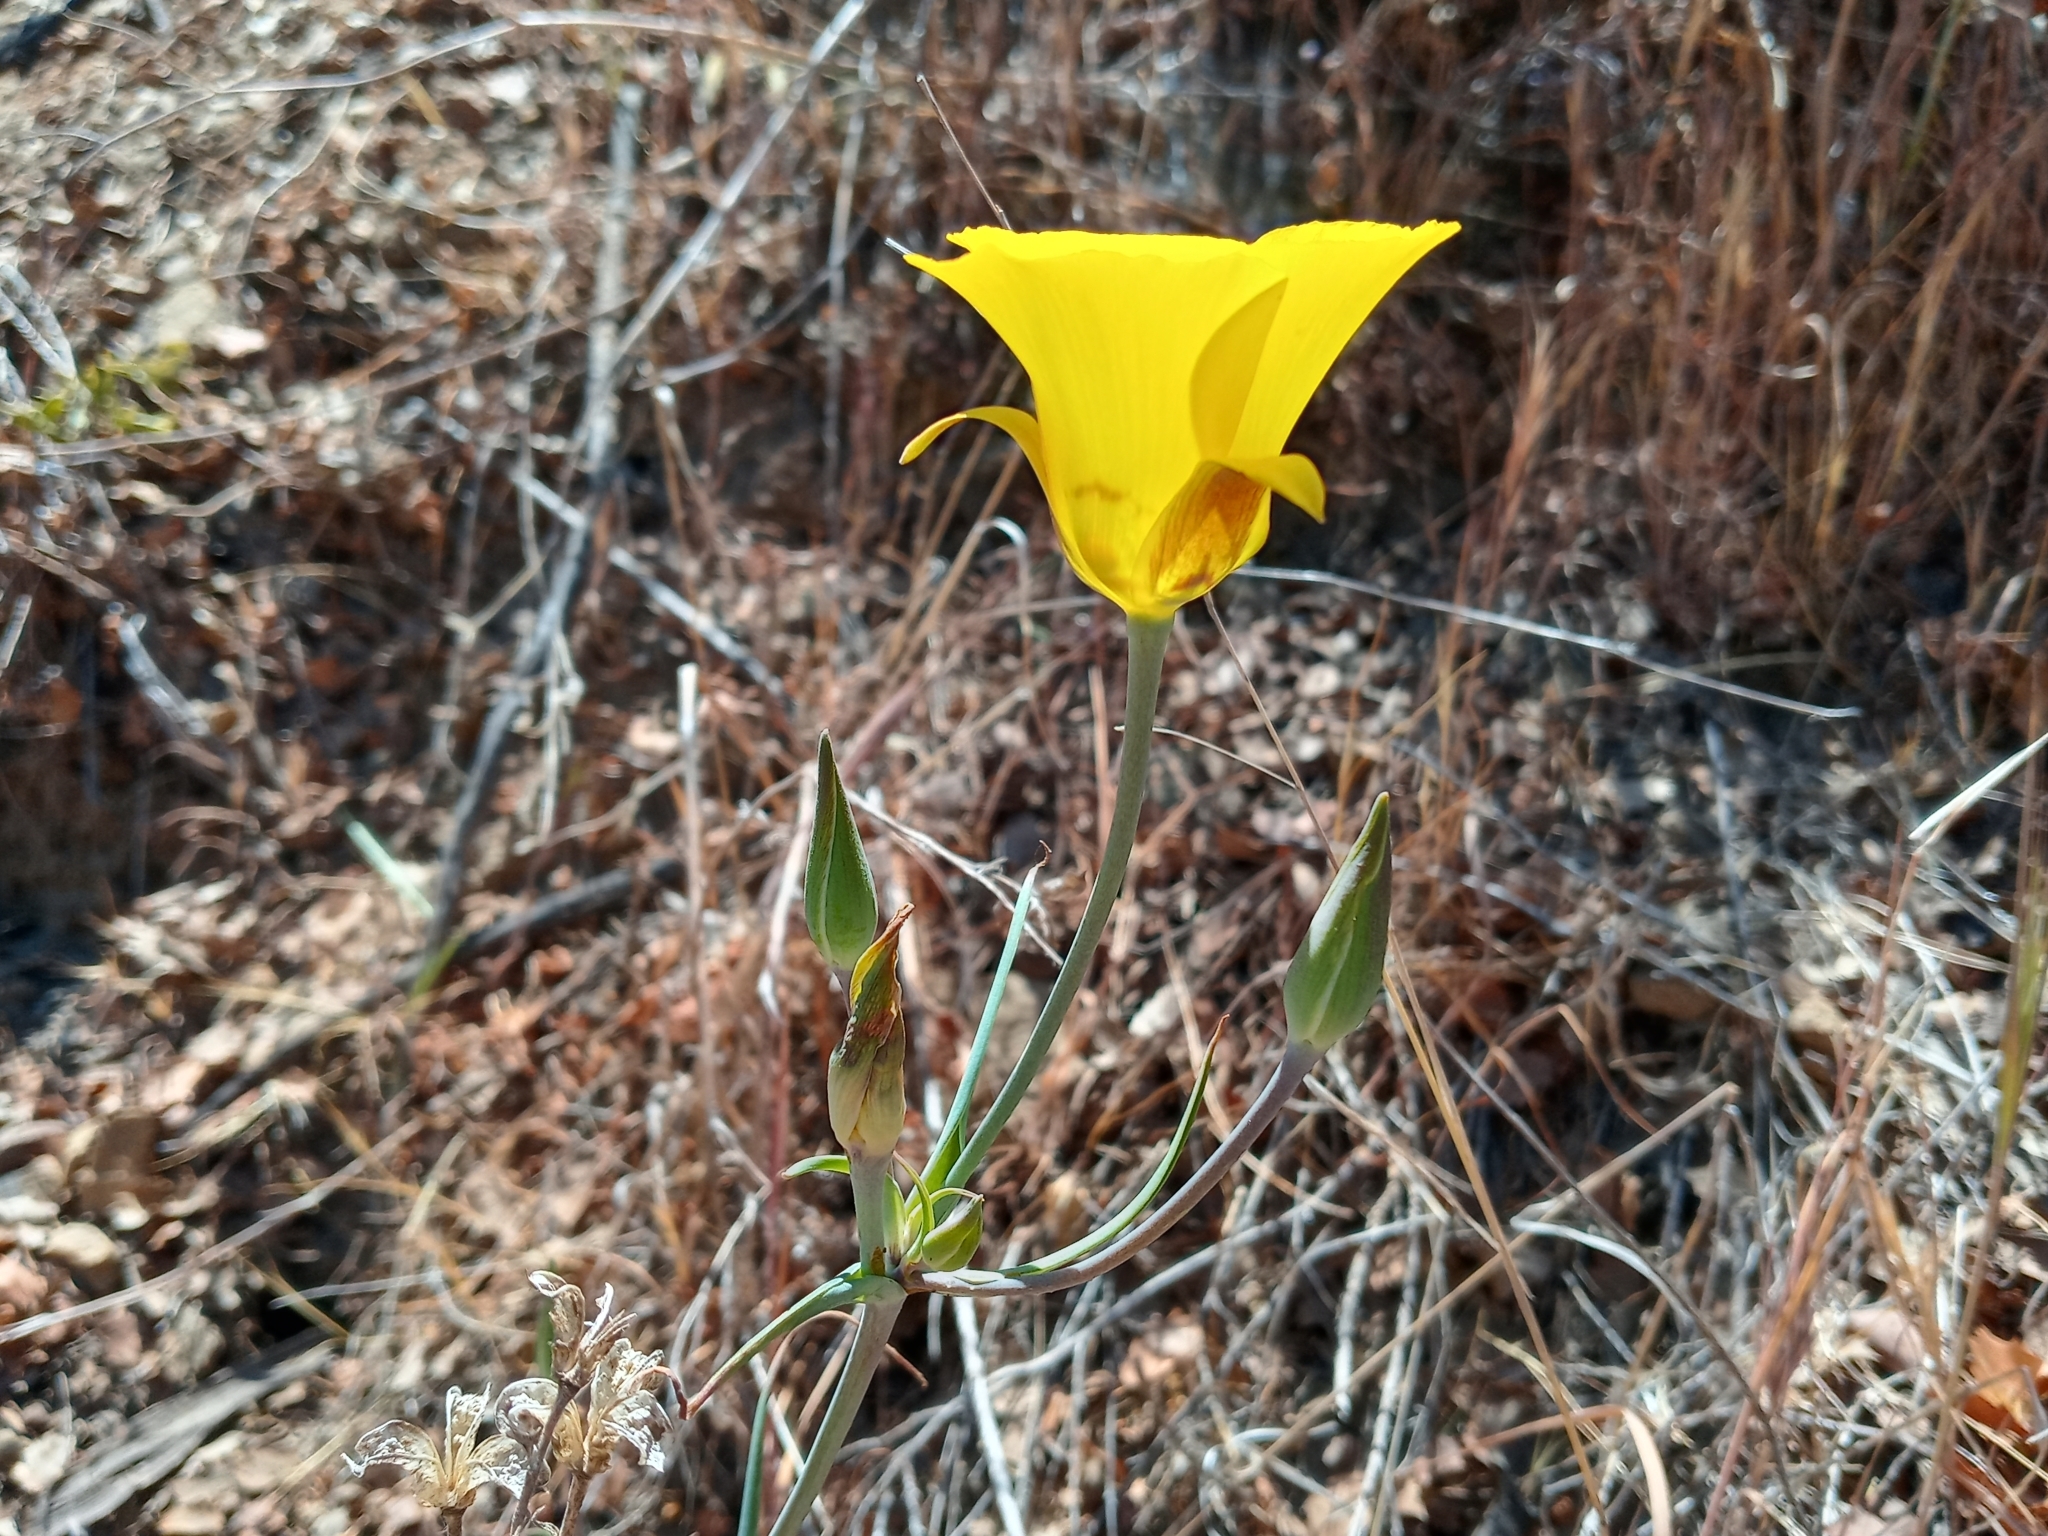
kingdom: Plantae
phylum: Tracheophyta
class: Liliopsida
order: Liliales
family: Liliaceae
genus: Calochortus
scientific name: Calochortus clavatus
